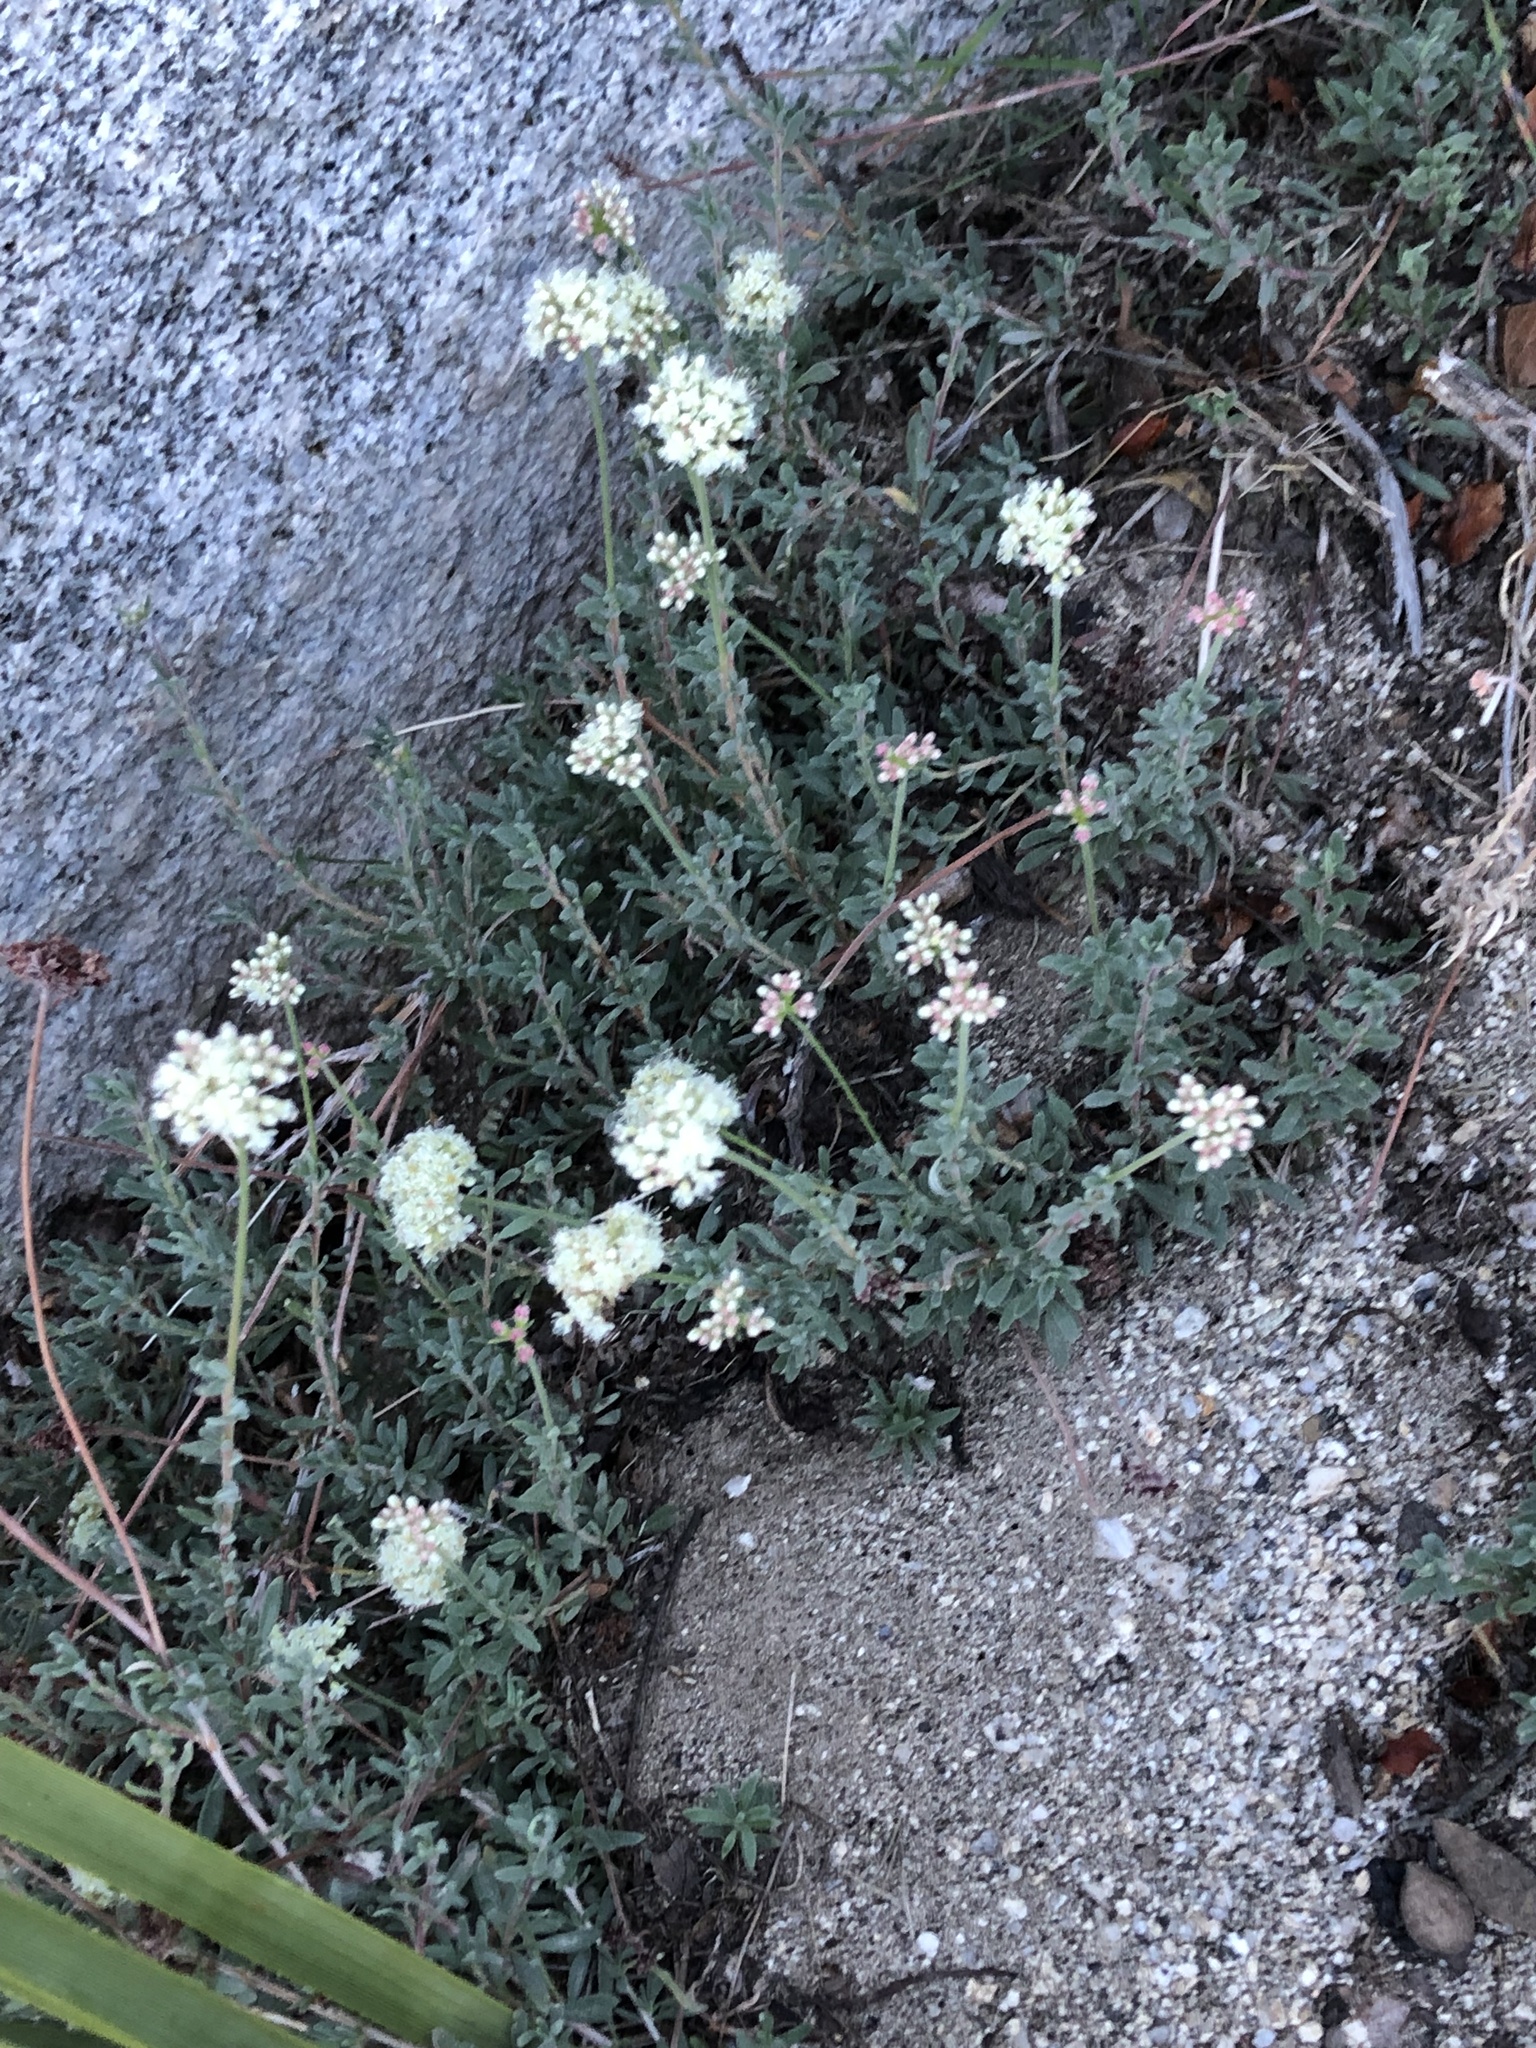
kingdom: Plantae
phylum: Tracheophyta
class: Magnoliopsida
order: Caryophyllales
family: Polygonaceae
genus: Eriogonum
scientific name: Eriogonum fasciculatum
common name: California wild buckwheat
